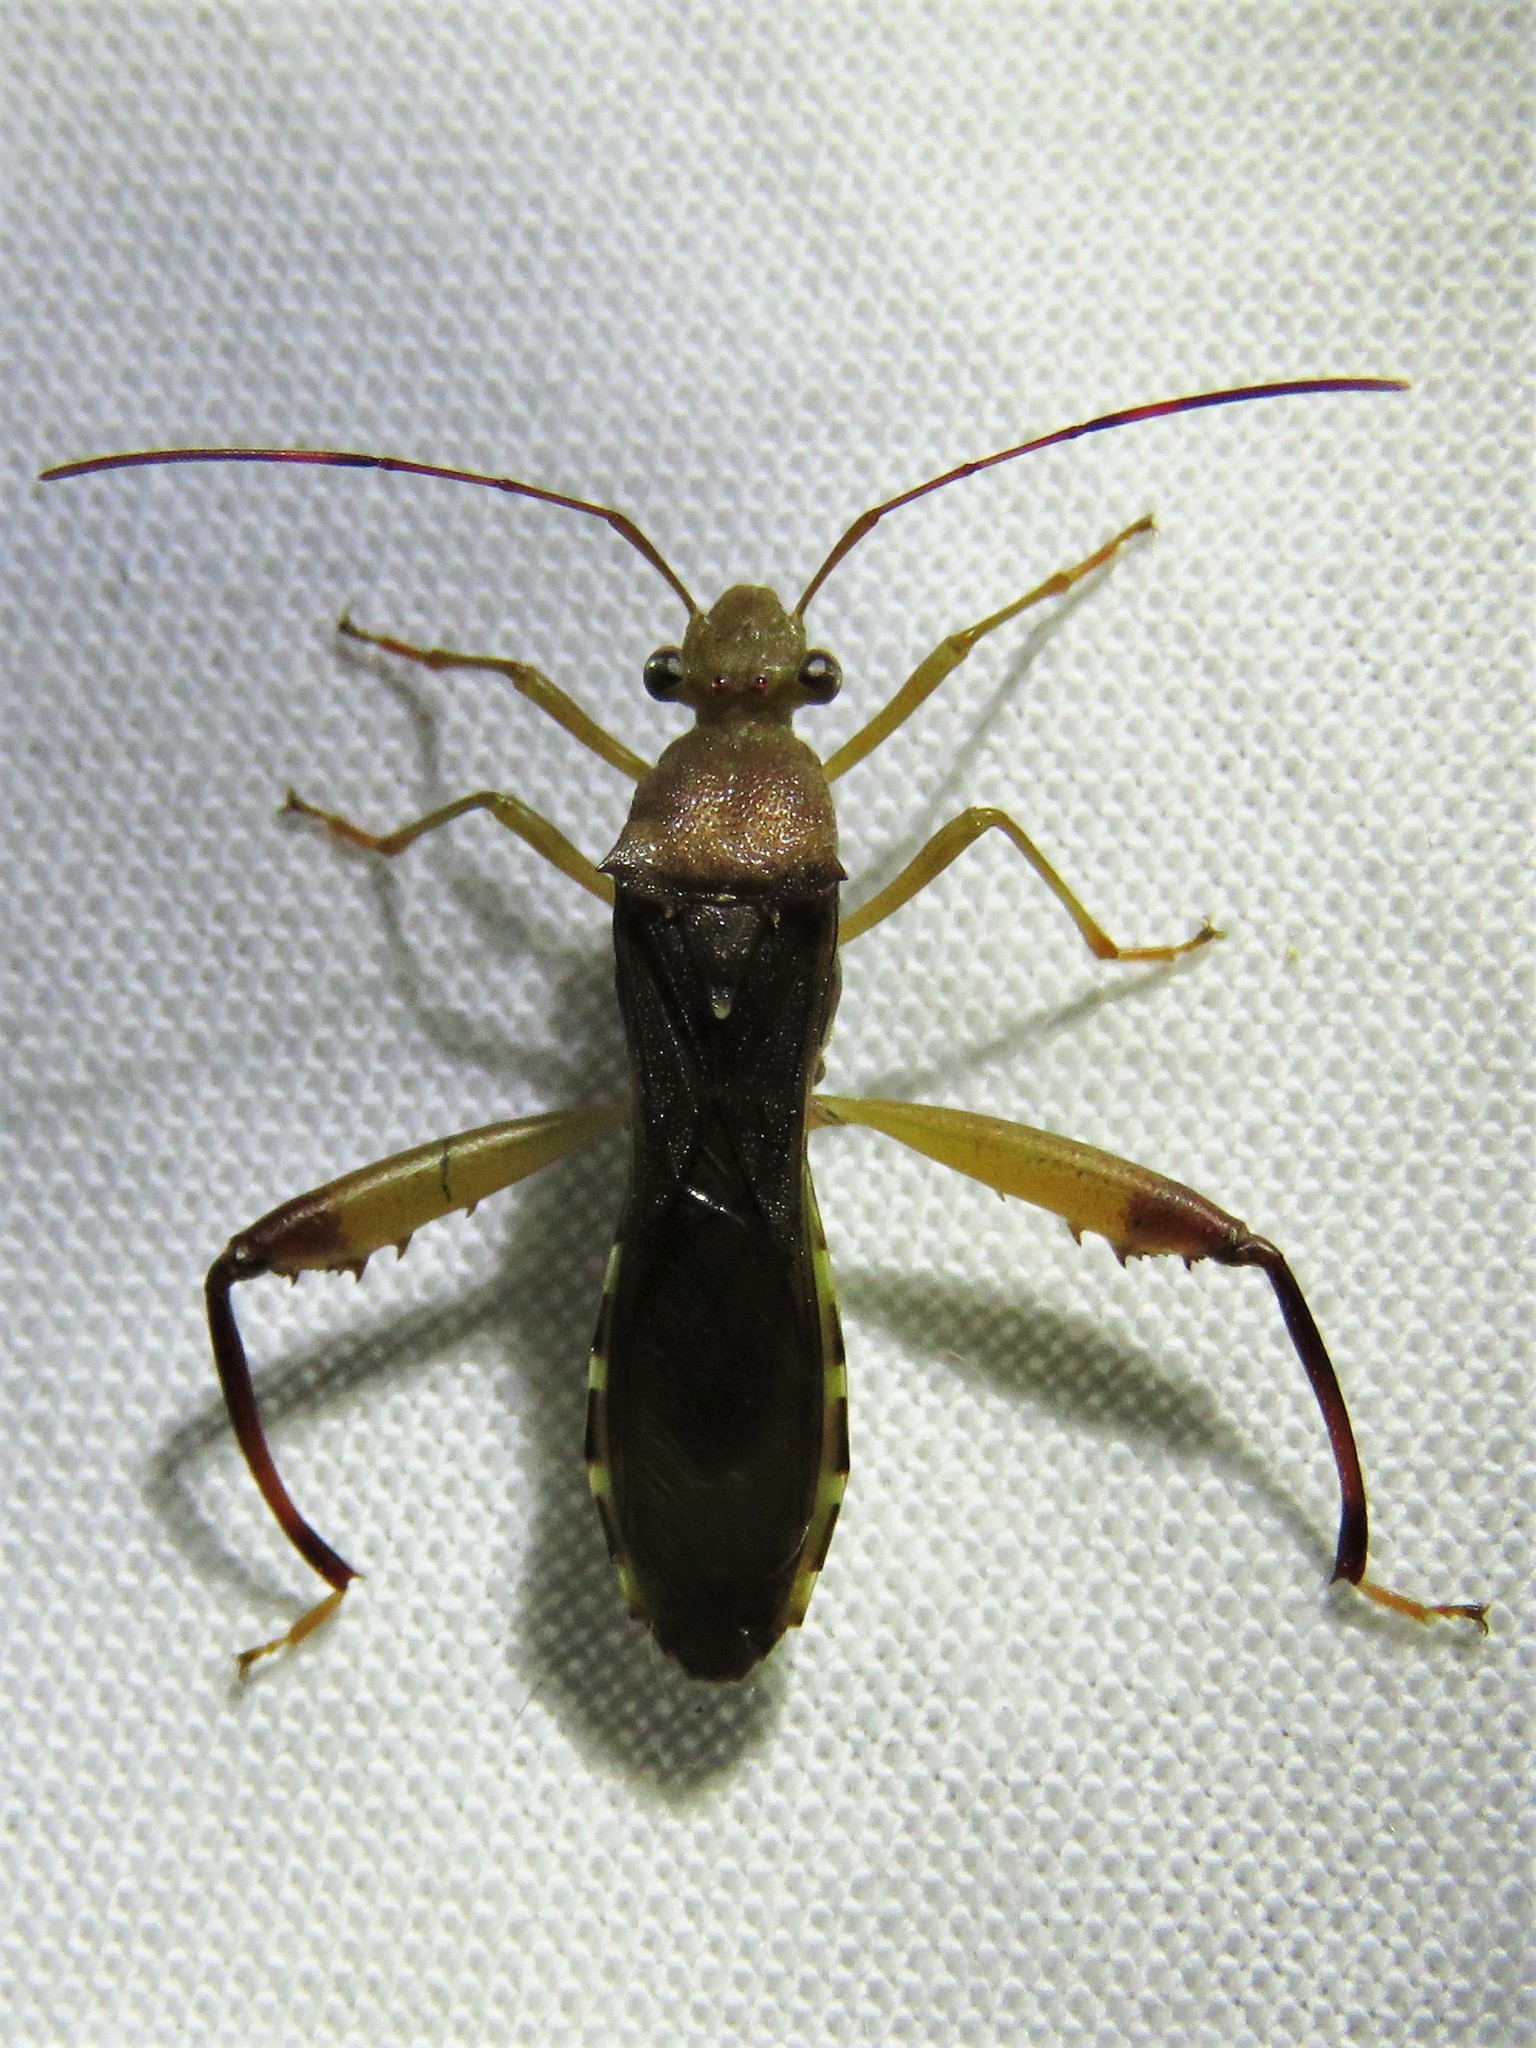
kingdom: Animalia
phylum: Arthropoda
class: Insecta
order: Hemiptera
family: Alydidae
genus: Hyalymenus
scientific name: Hyalymenus tarsatus
